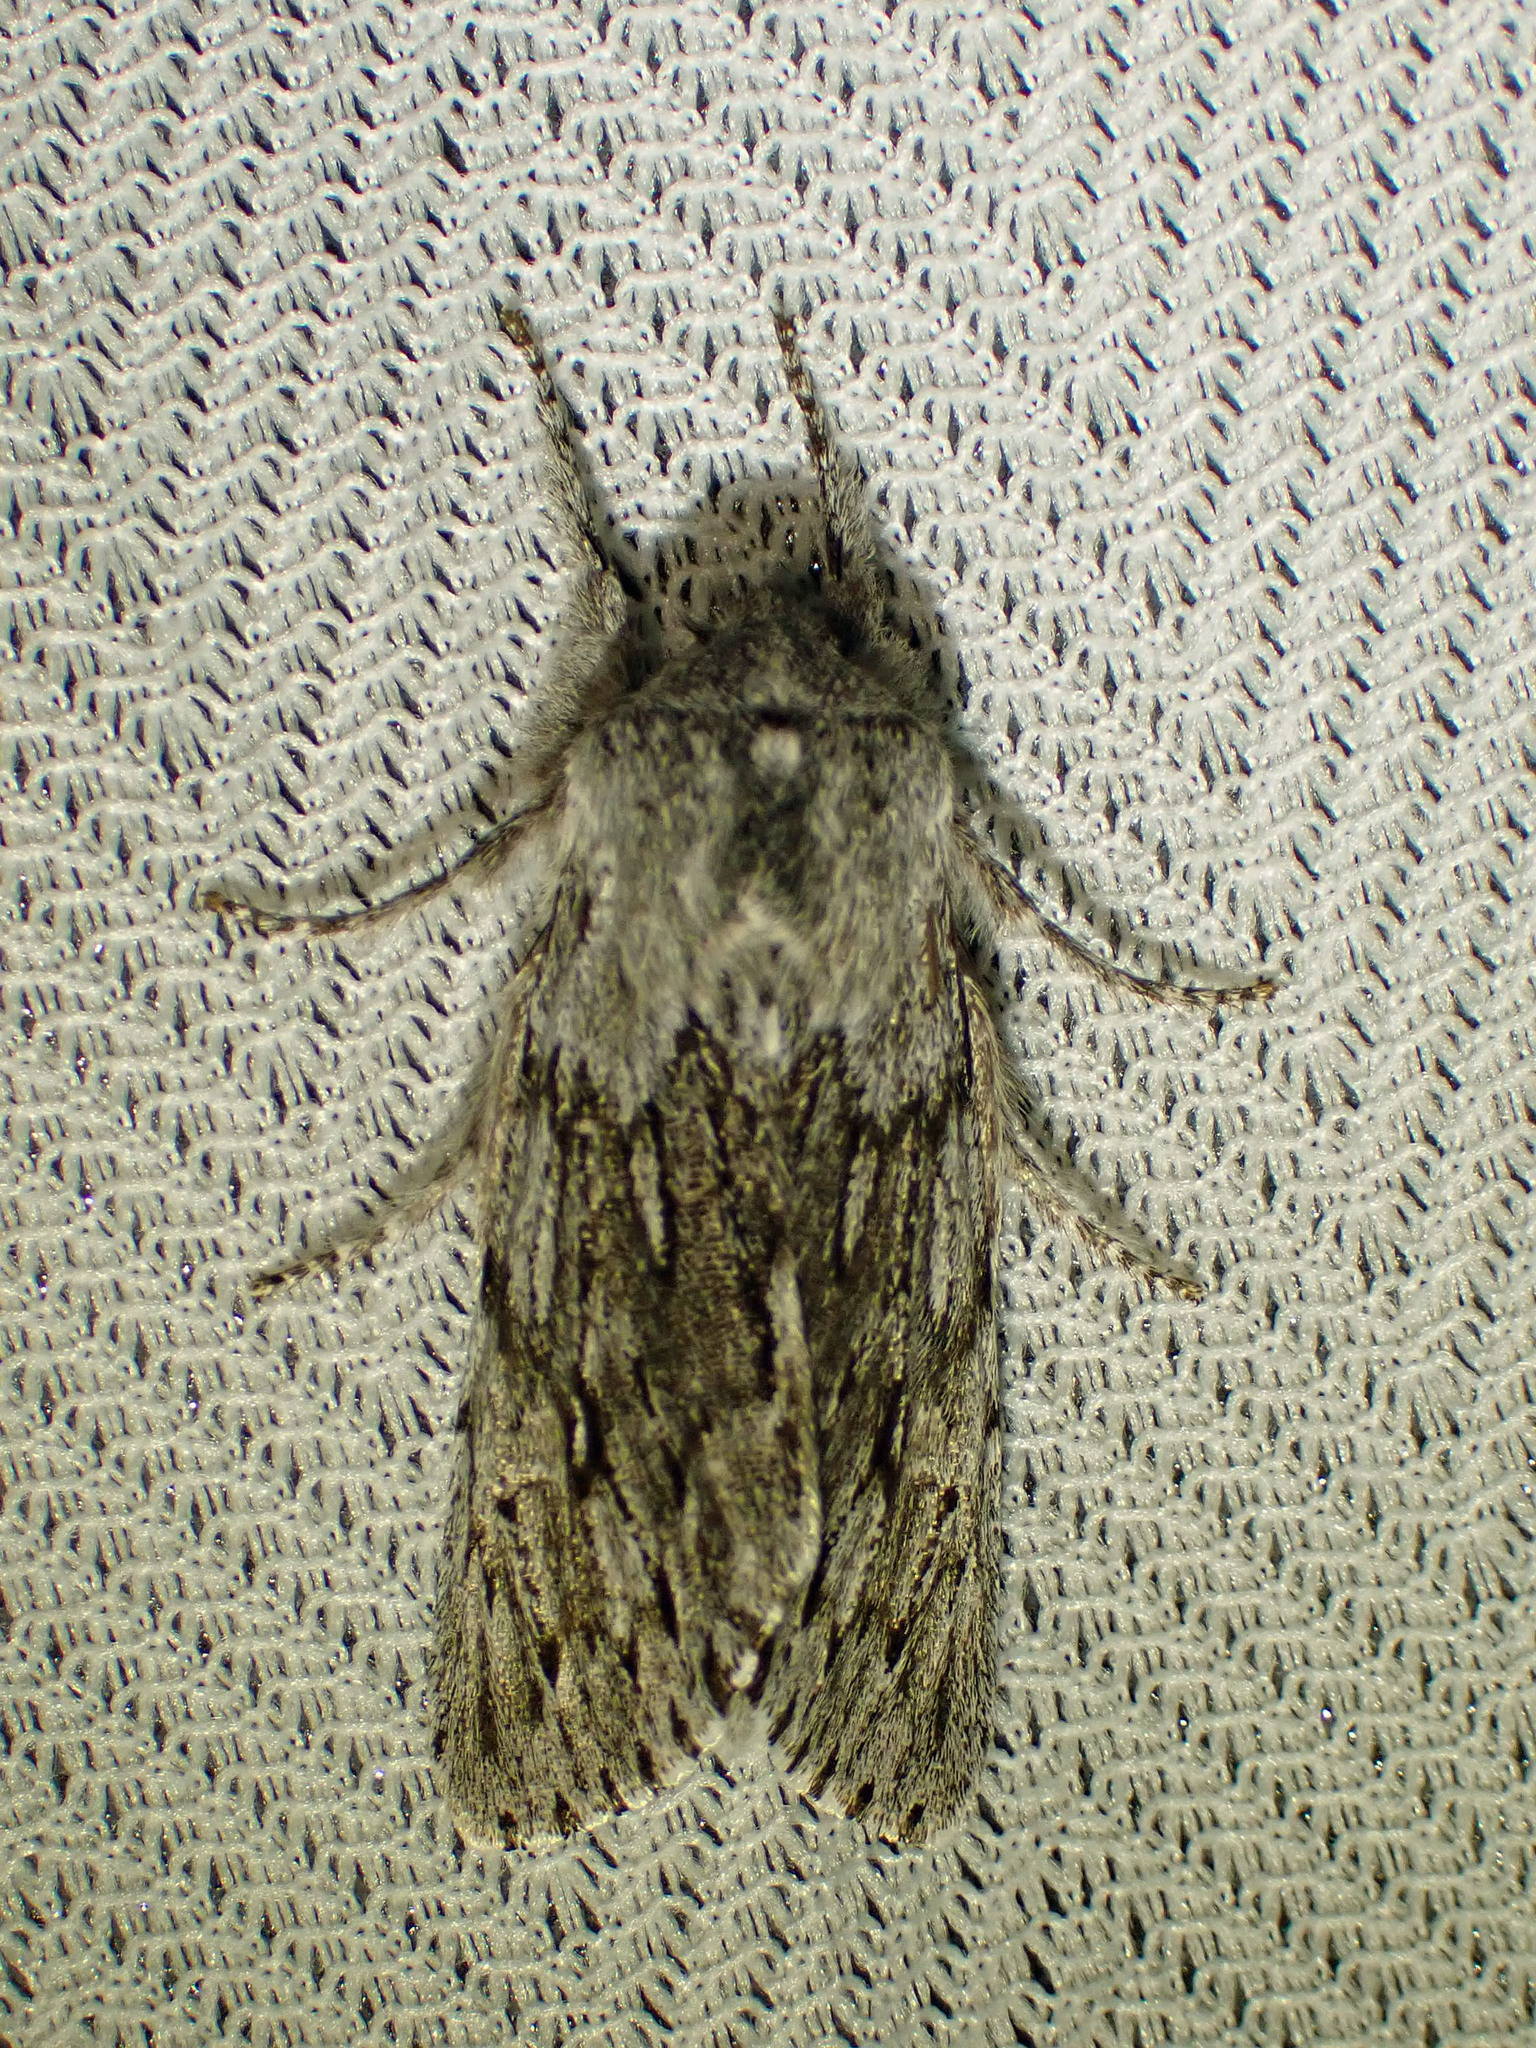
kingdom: Animalia
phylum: Arthropoda
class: Insecta
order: Lepidoptera
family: Noctuidae
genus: Brachionycha
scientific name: Brachionycha borealis
